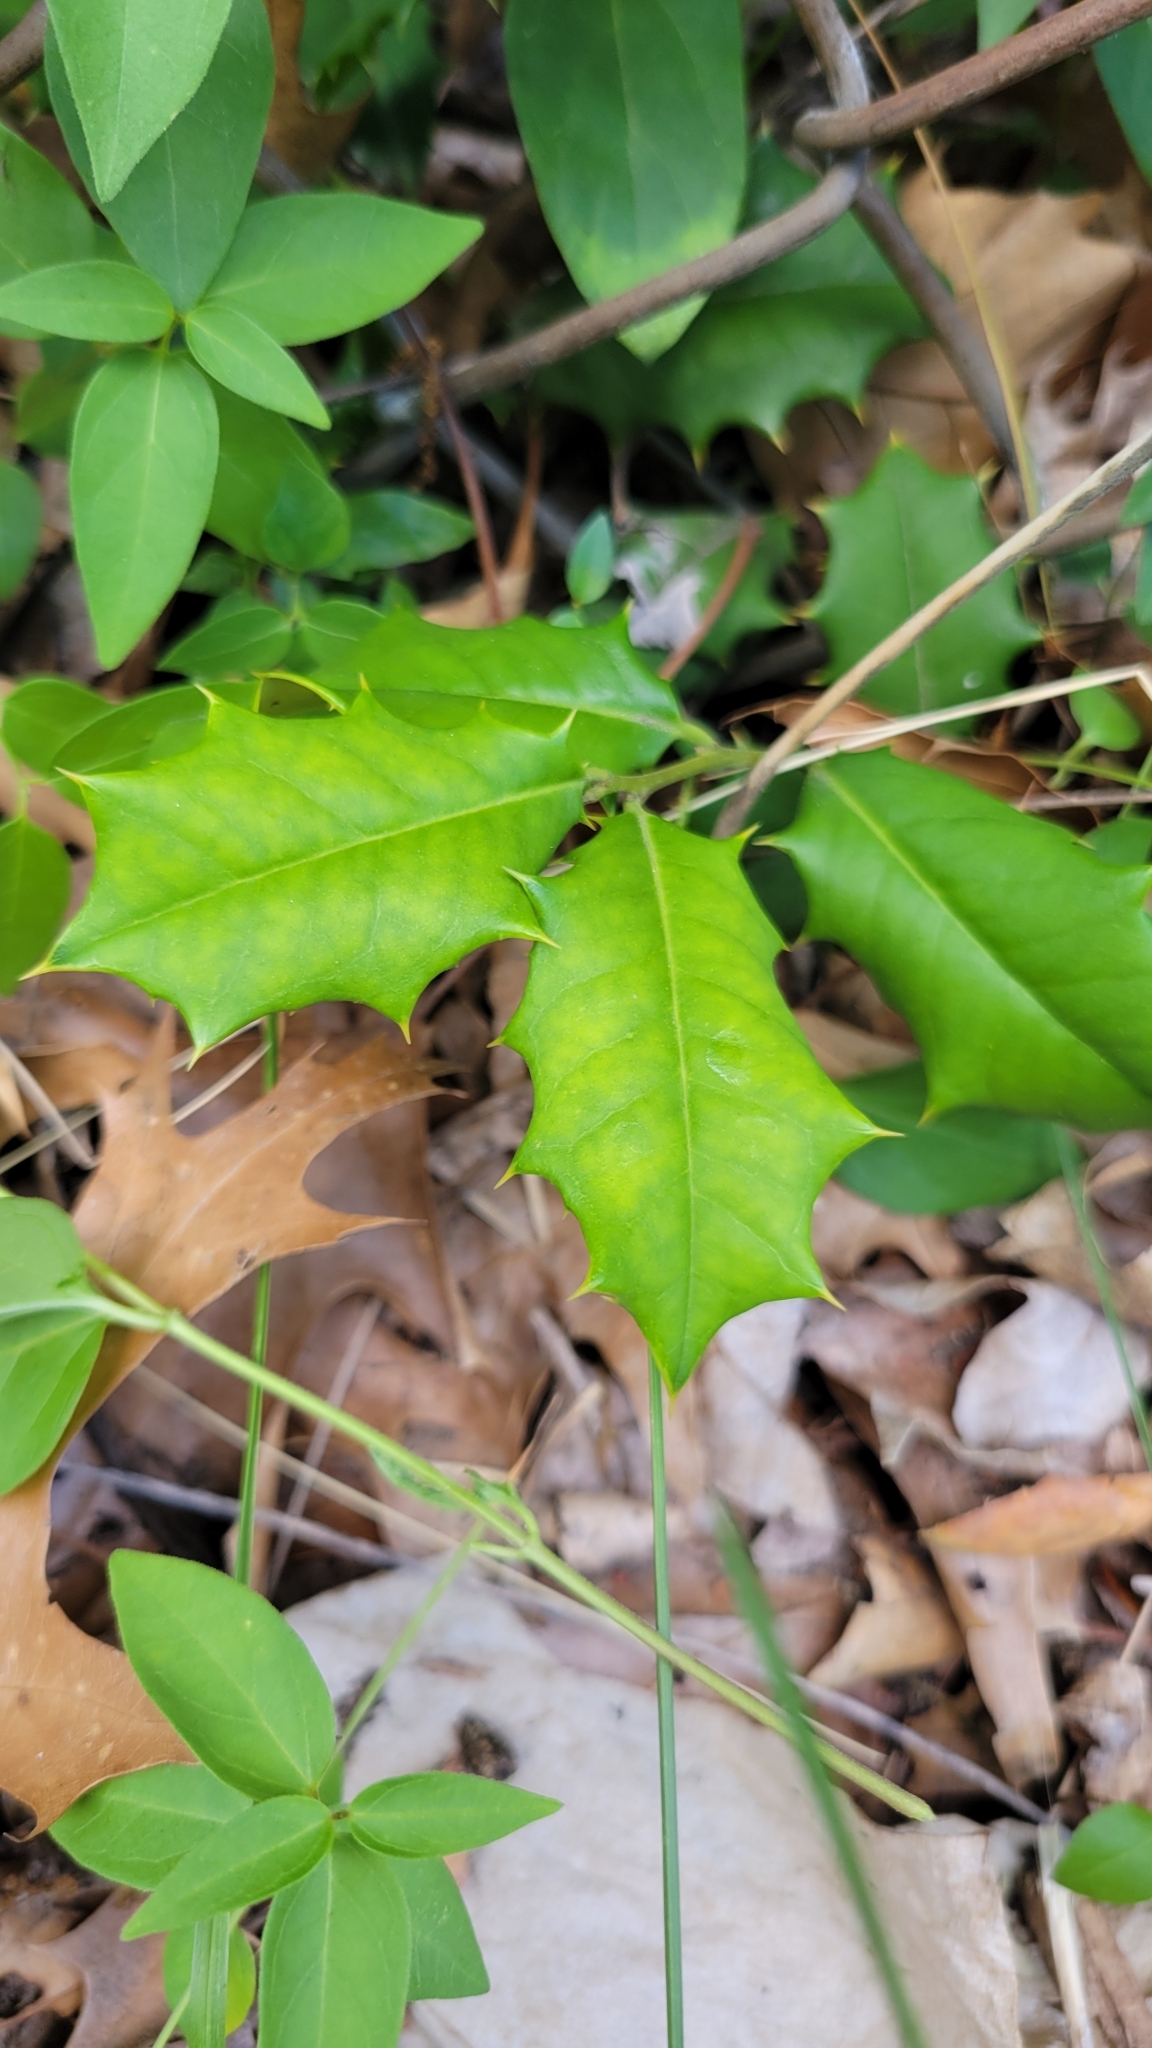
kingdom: Plantae
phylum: Tracheophyta
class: Magnoliopsida
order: Aquifoliales
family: Aquifoliaceae
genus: Ilex
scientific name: Ilex opaca
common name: American holly
